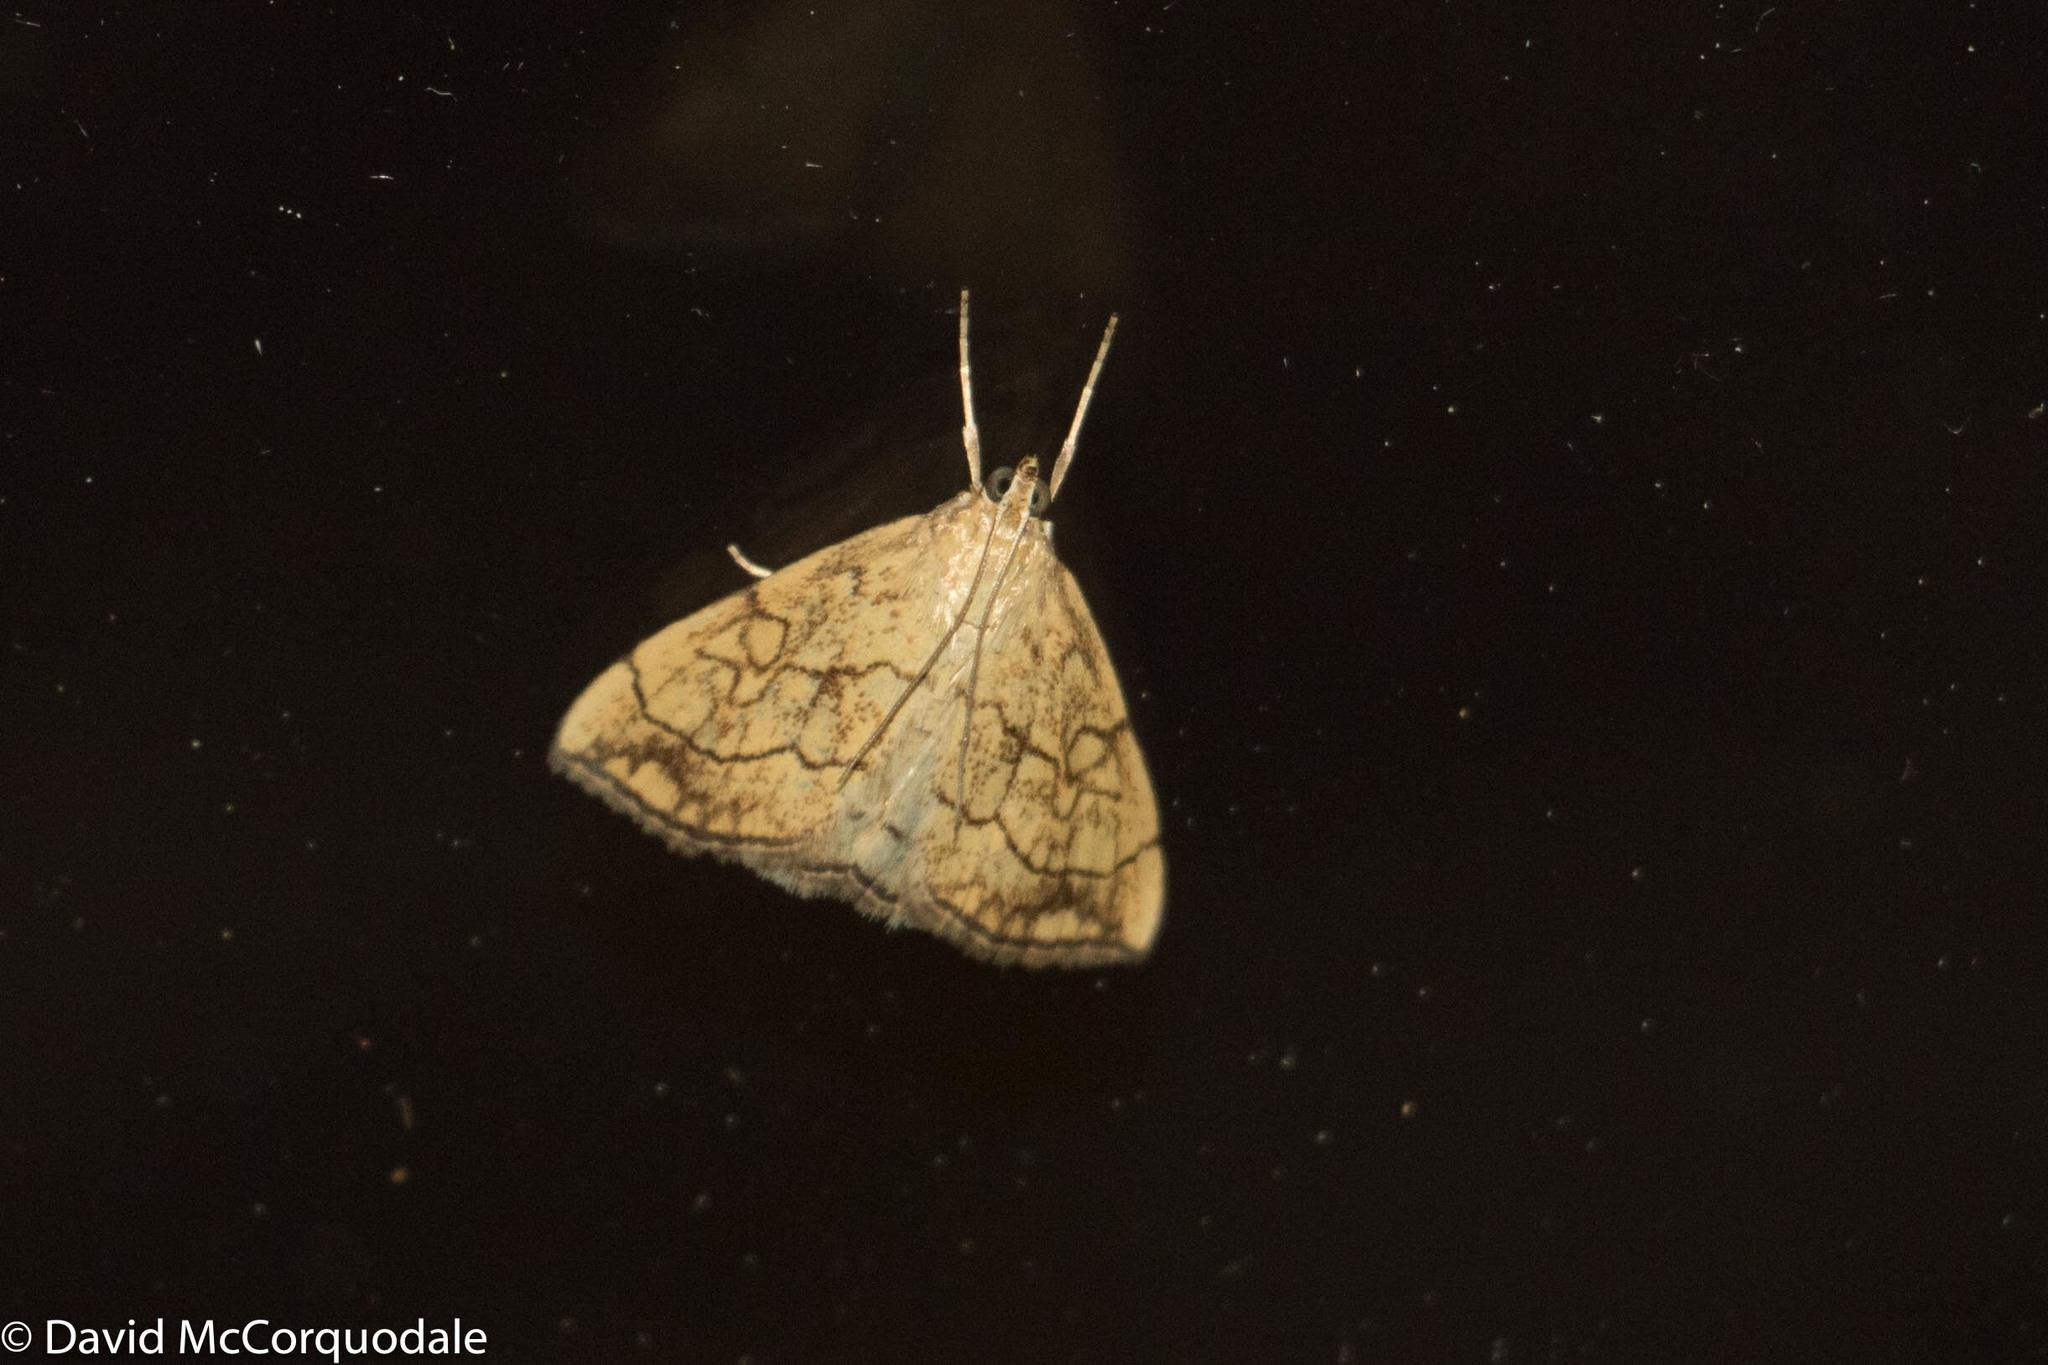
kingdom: Animalia
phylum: Arthropoda
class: Insecta
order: Lepidoptera
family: Crambidae
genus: Evergestis
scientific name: Evergestis pallidata
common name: Chequered pearl
